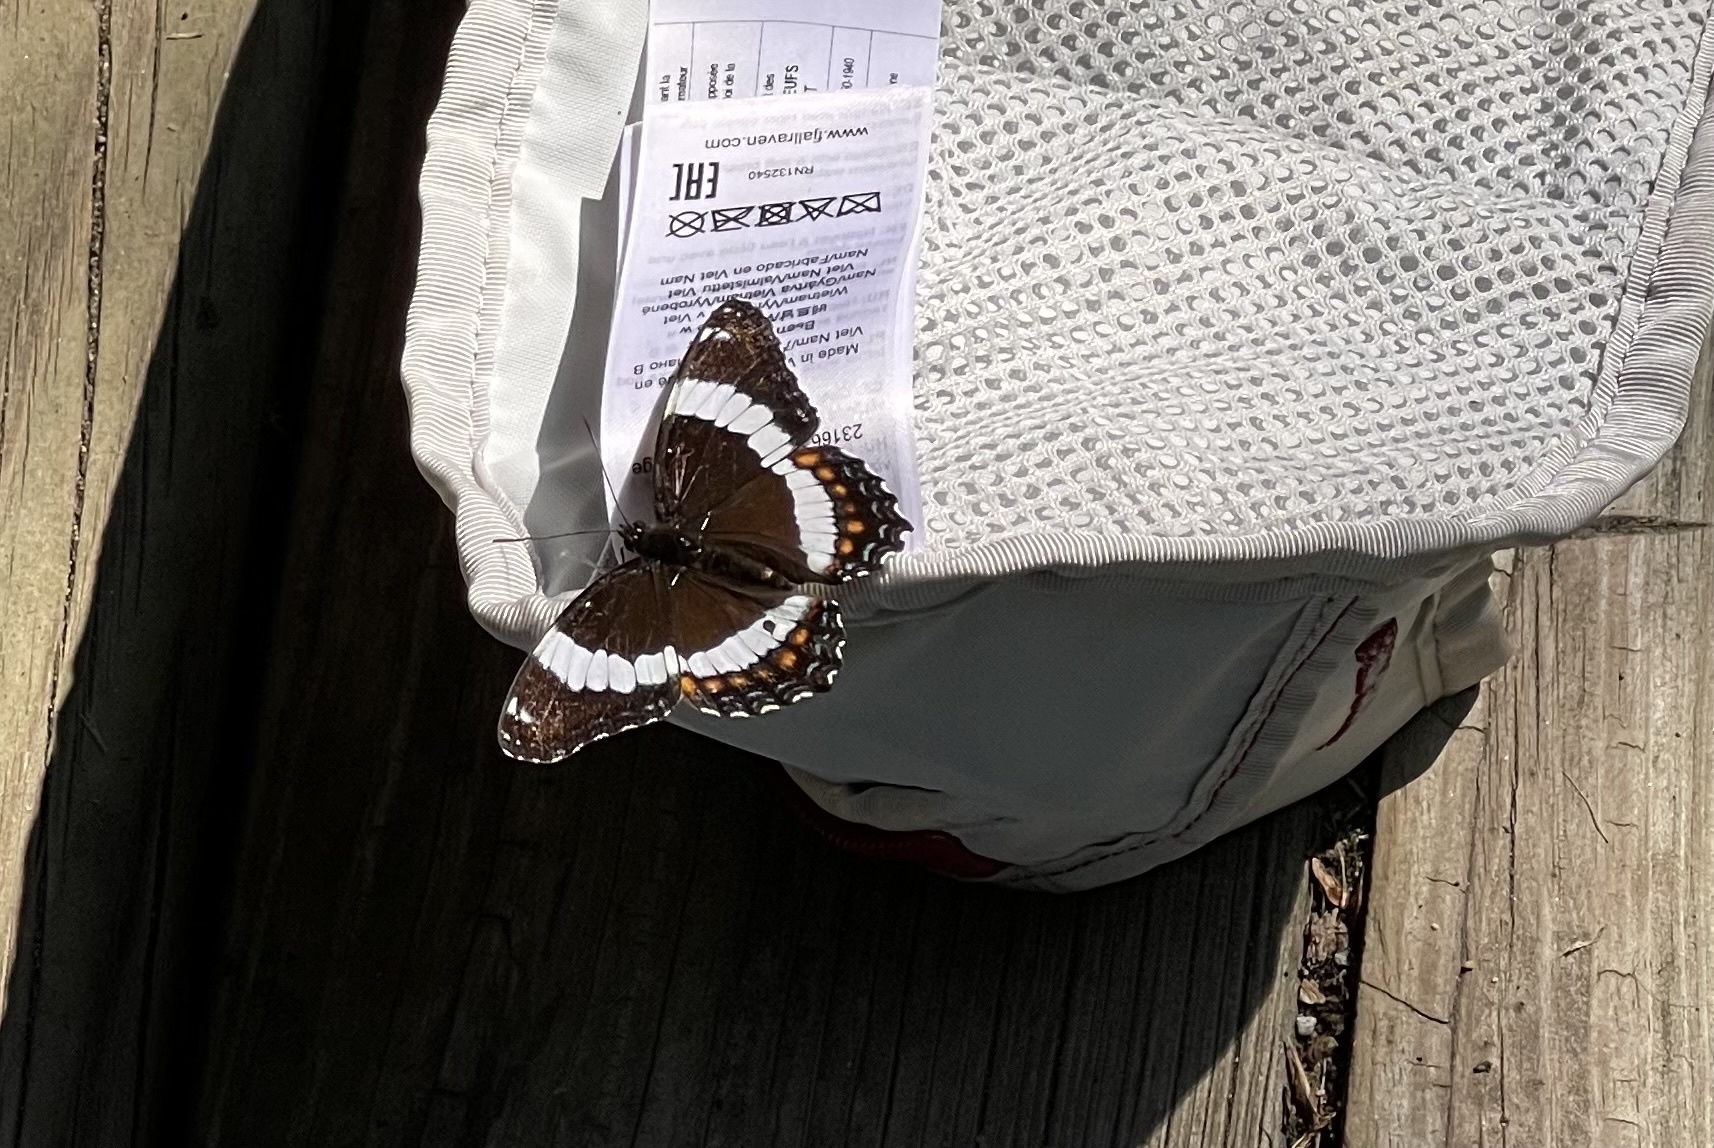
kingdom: Animalia
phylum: Arthropoda
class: Insecta
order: Lepidoptera
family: Nymphalidae
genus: Limenitis
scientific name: Limenitis arthemis
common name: Red-spotted admiral
